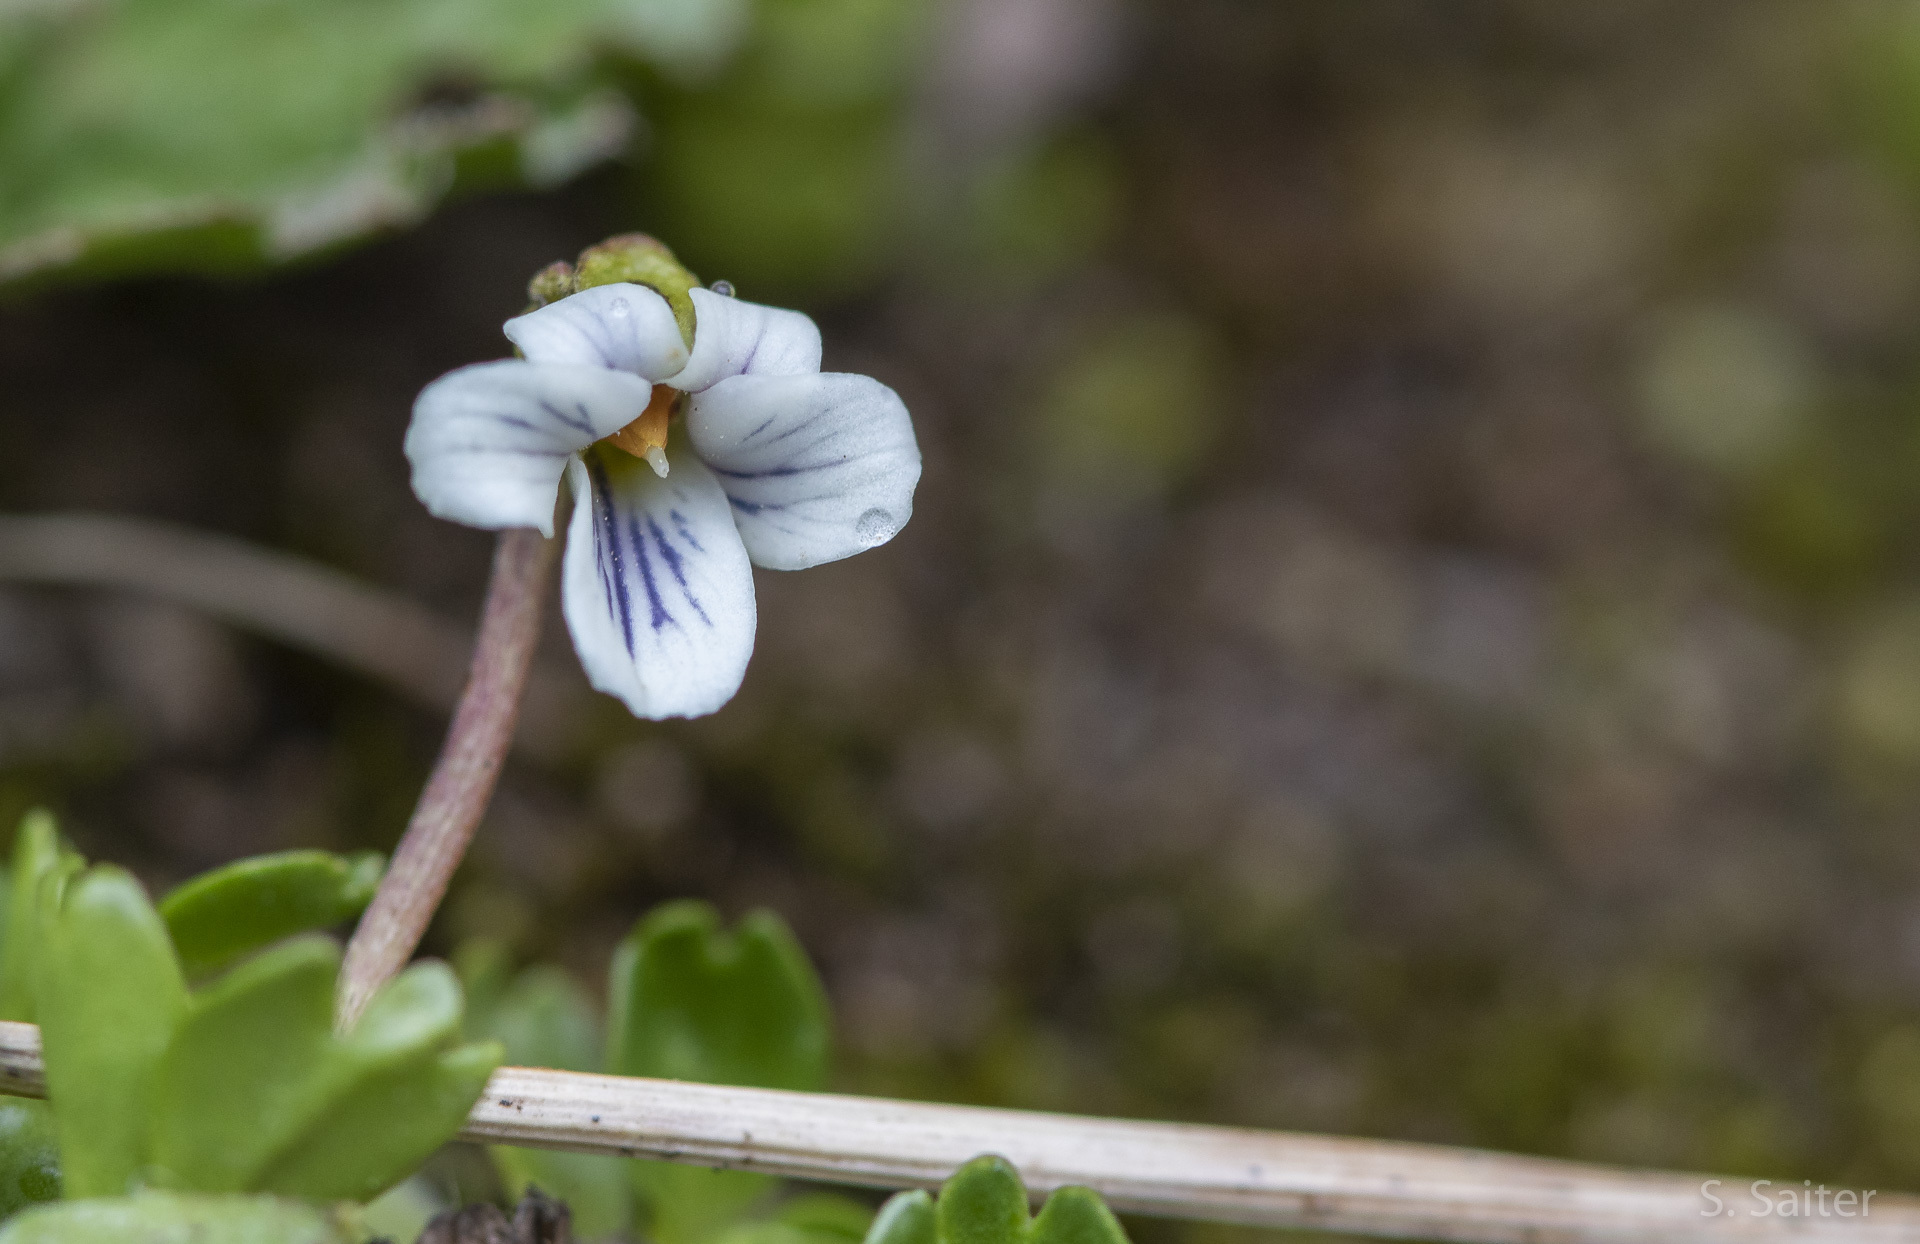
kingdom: Plantae
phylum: Tracheophyta
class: Magnoliopsida
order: Malpighiales
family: Violaceae
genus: Viola
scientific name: Viola tridentata
